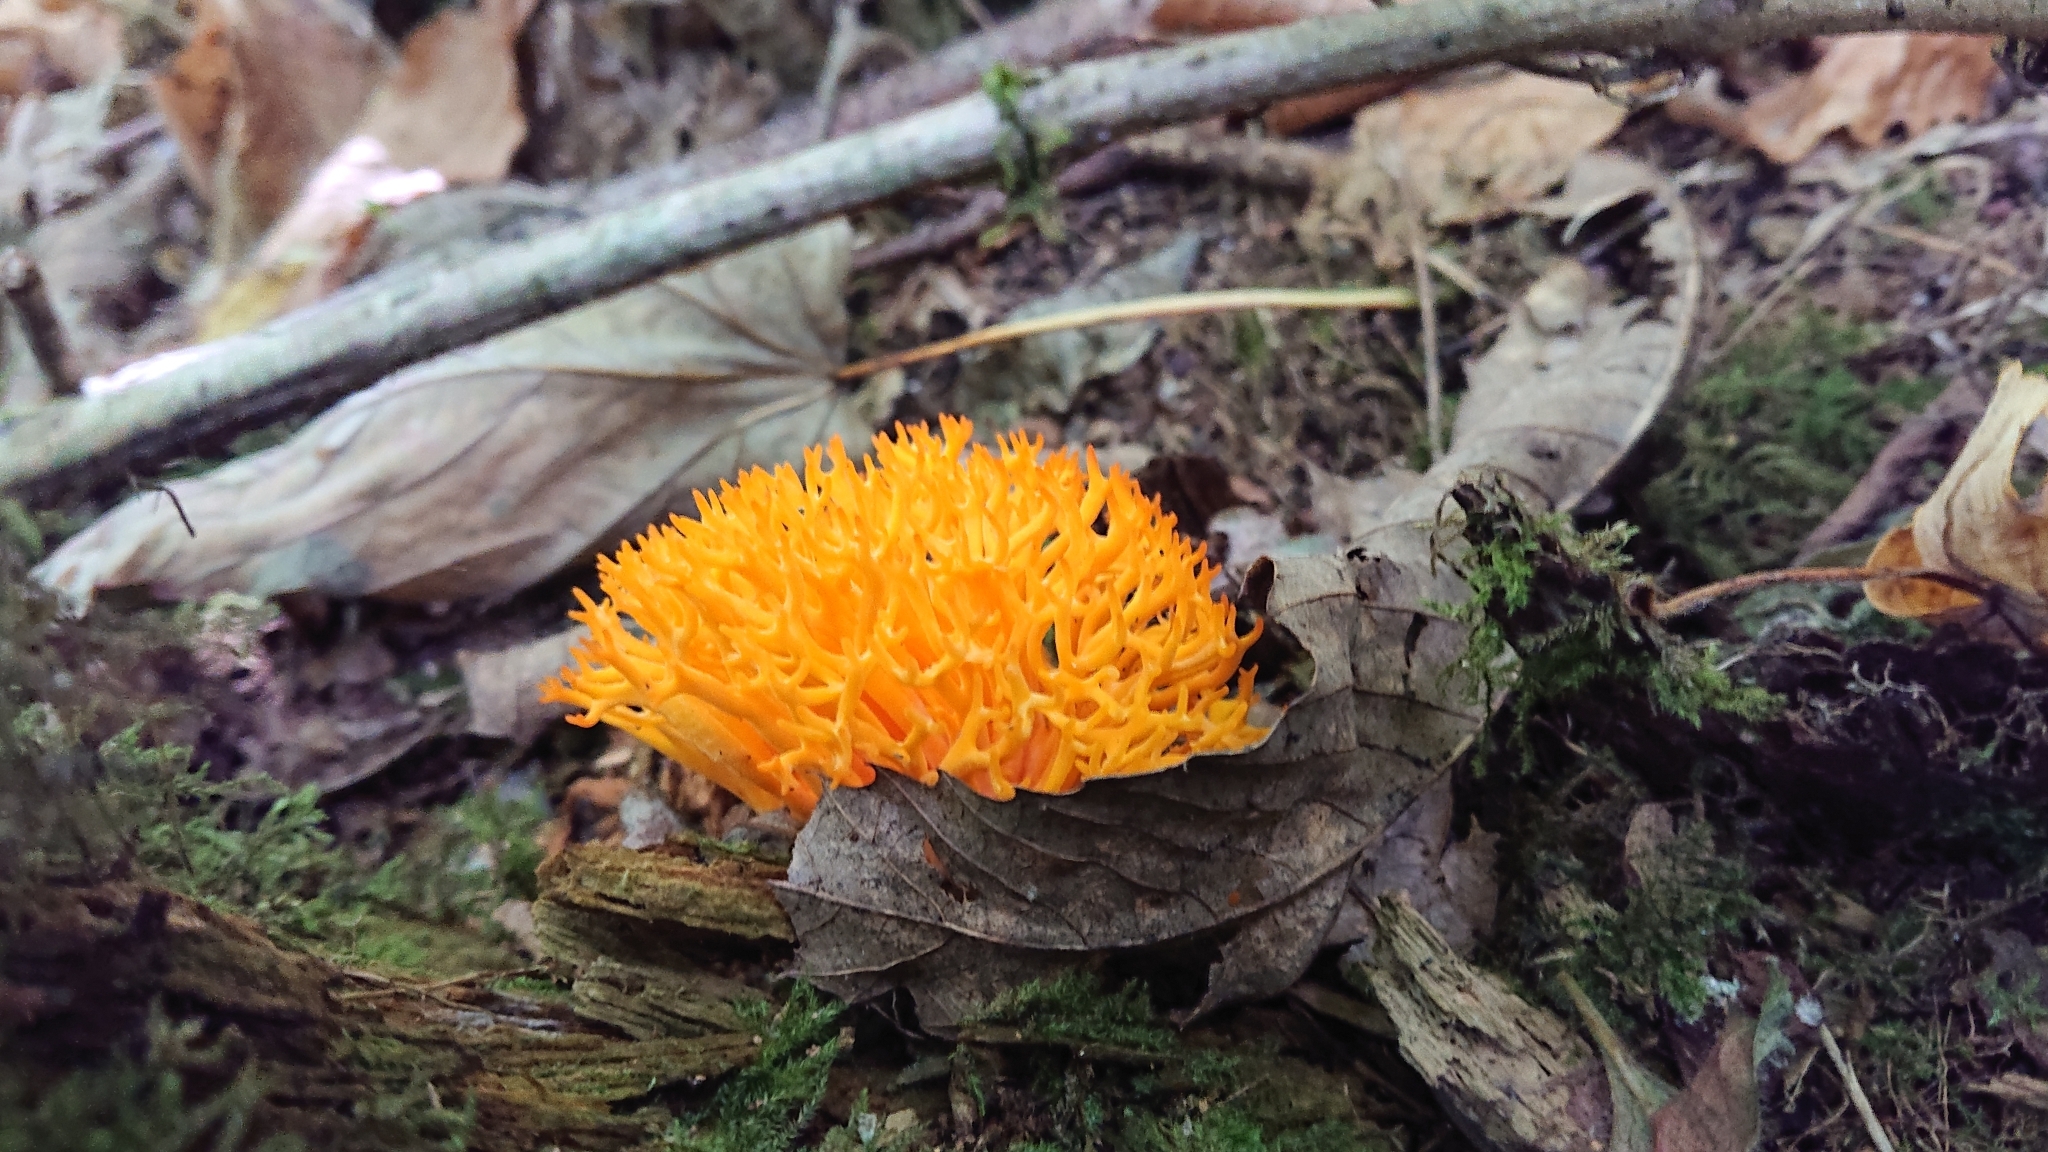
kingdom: Fungi
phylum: Basidiomycota
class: Dacrymycetes
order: Dacrymycetales
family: Dacrymycetaceae
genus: Calocera
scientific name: Calocera viscosa
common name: Yellow stagshorn
